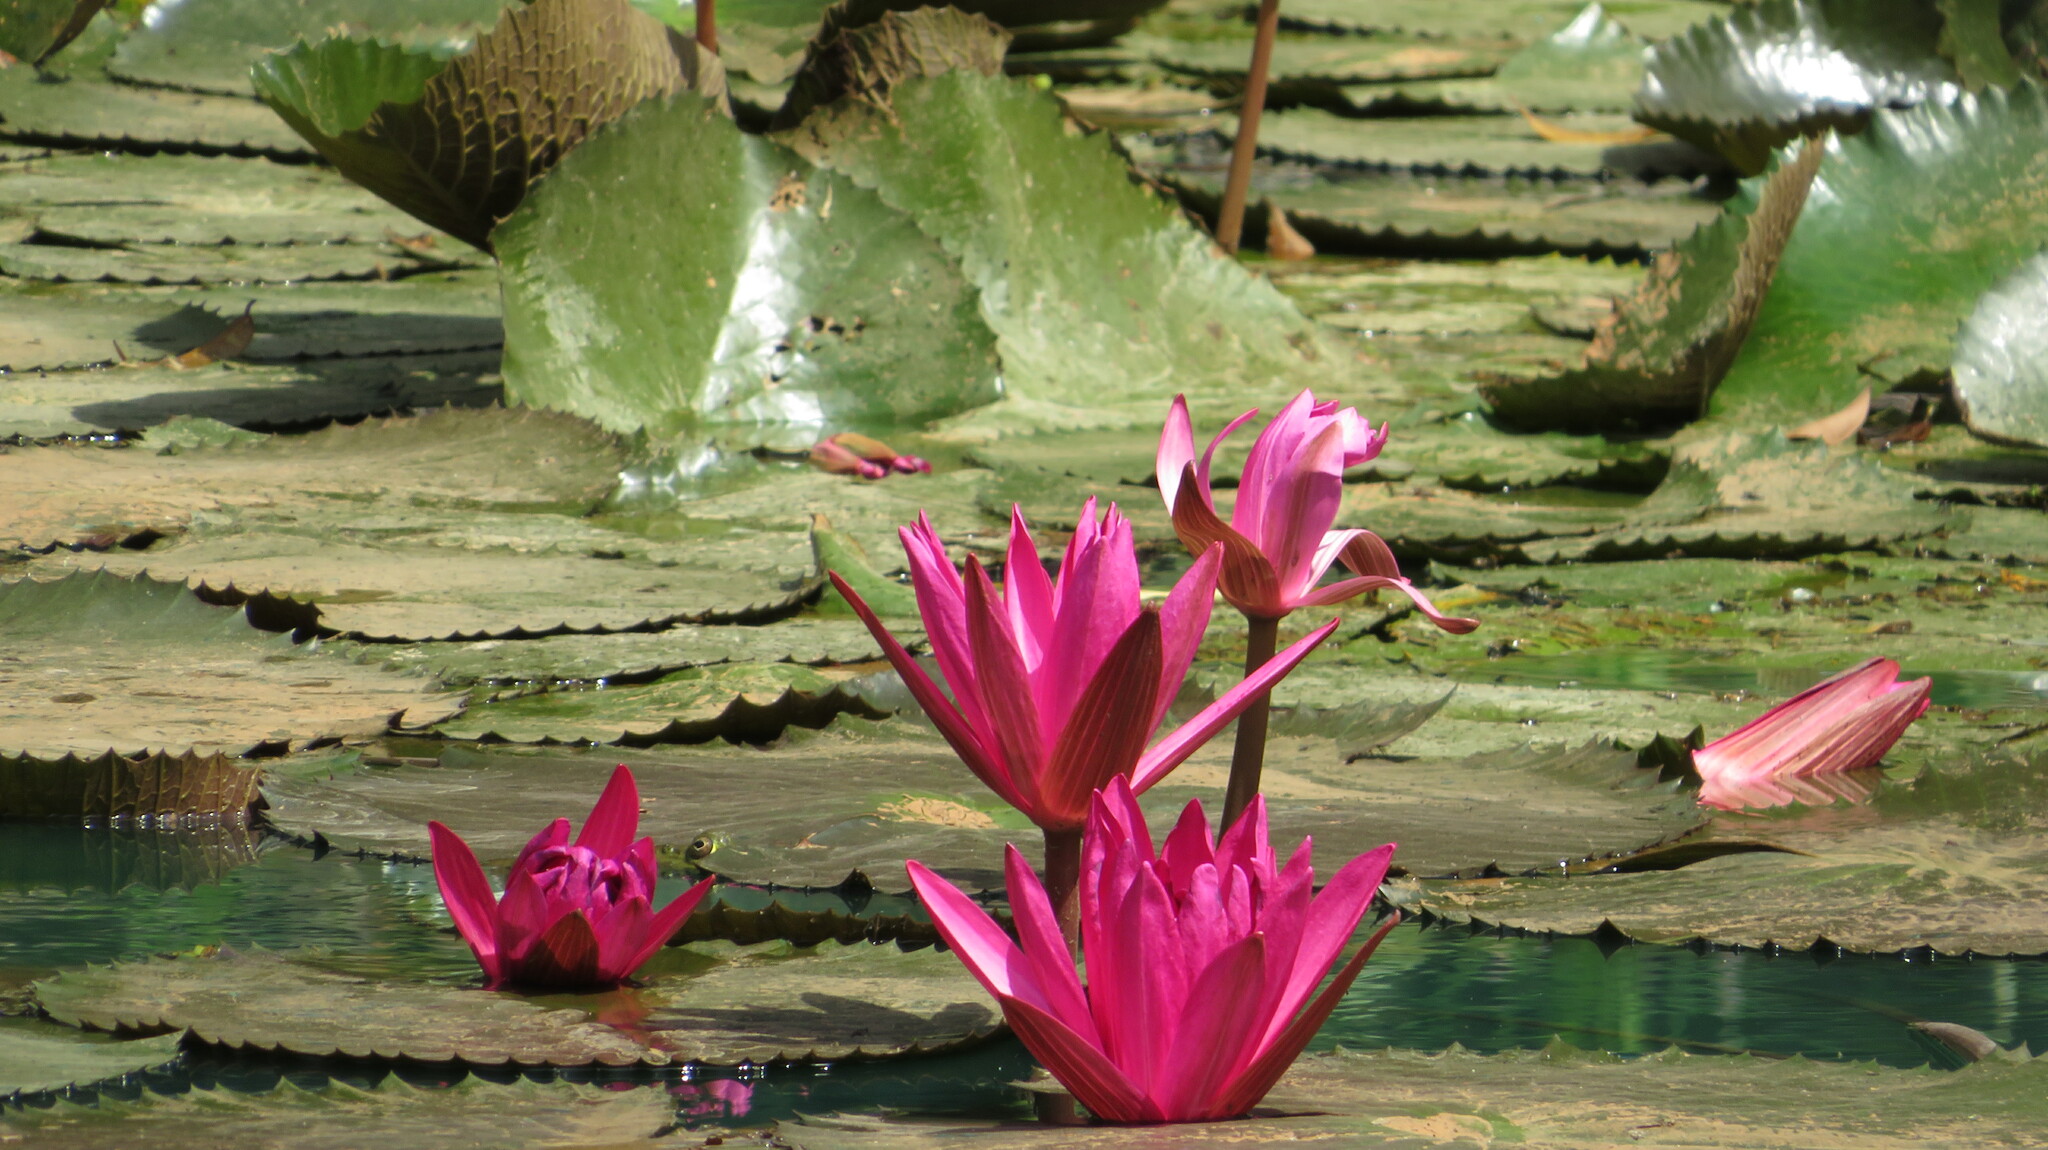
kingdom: Plantae
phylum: Tracheophyta
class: Magnoliopsida
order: Nymphaeales
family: Nymphaeaceae
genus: Nymphaea
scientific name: Nymphaea rubra
